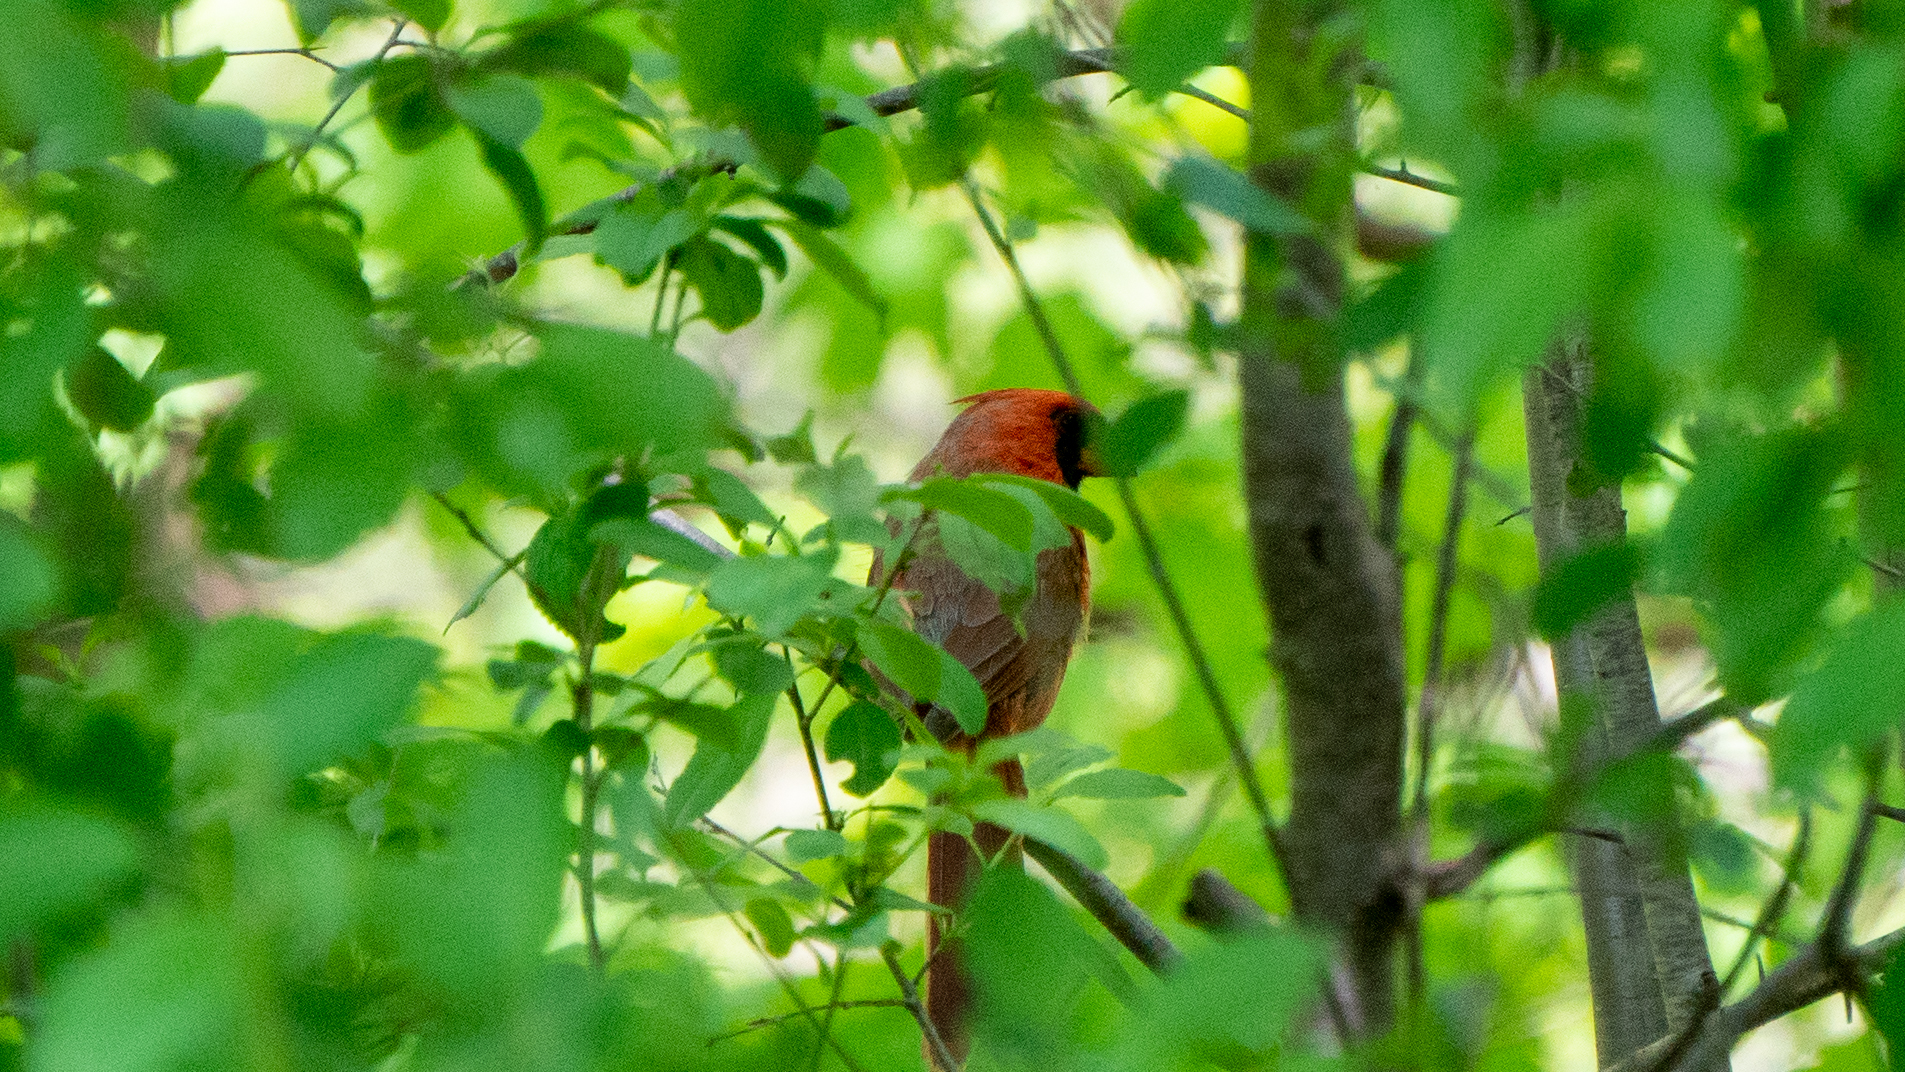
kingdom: Animalia
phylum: Chordata
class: Aves
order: Passeriformes
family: Cardinalidae
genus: Cardinalis
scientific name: Cardinalis cardinalis
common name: Northern cardinal
